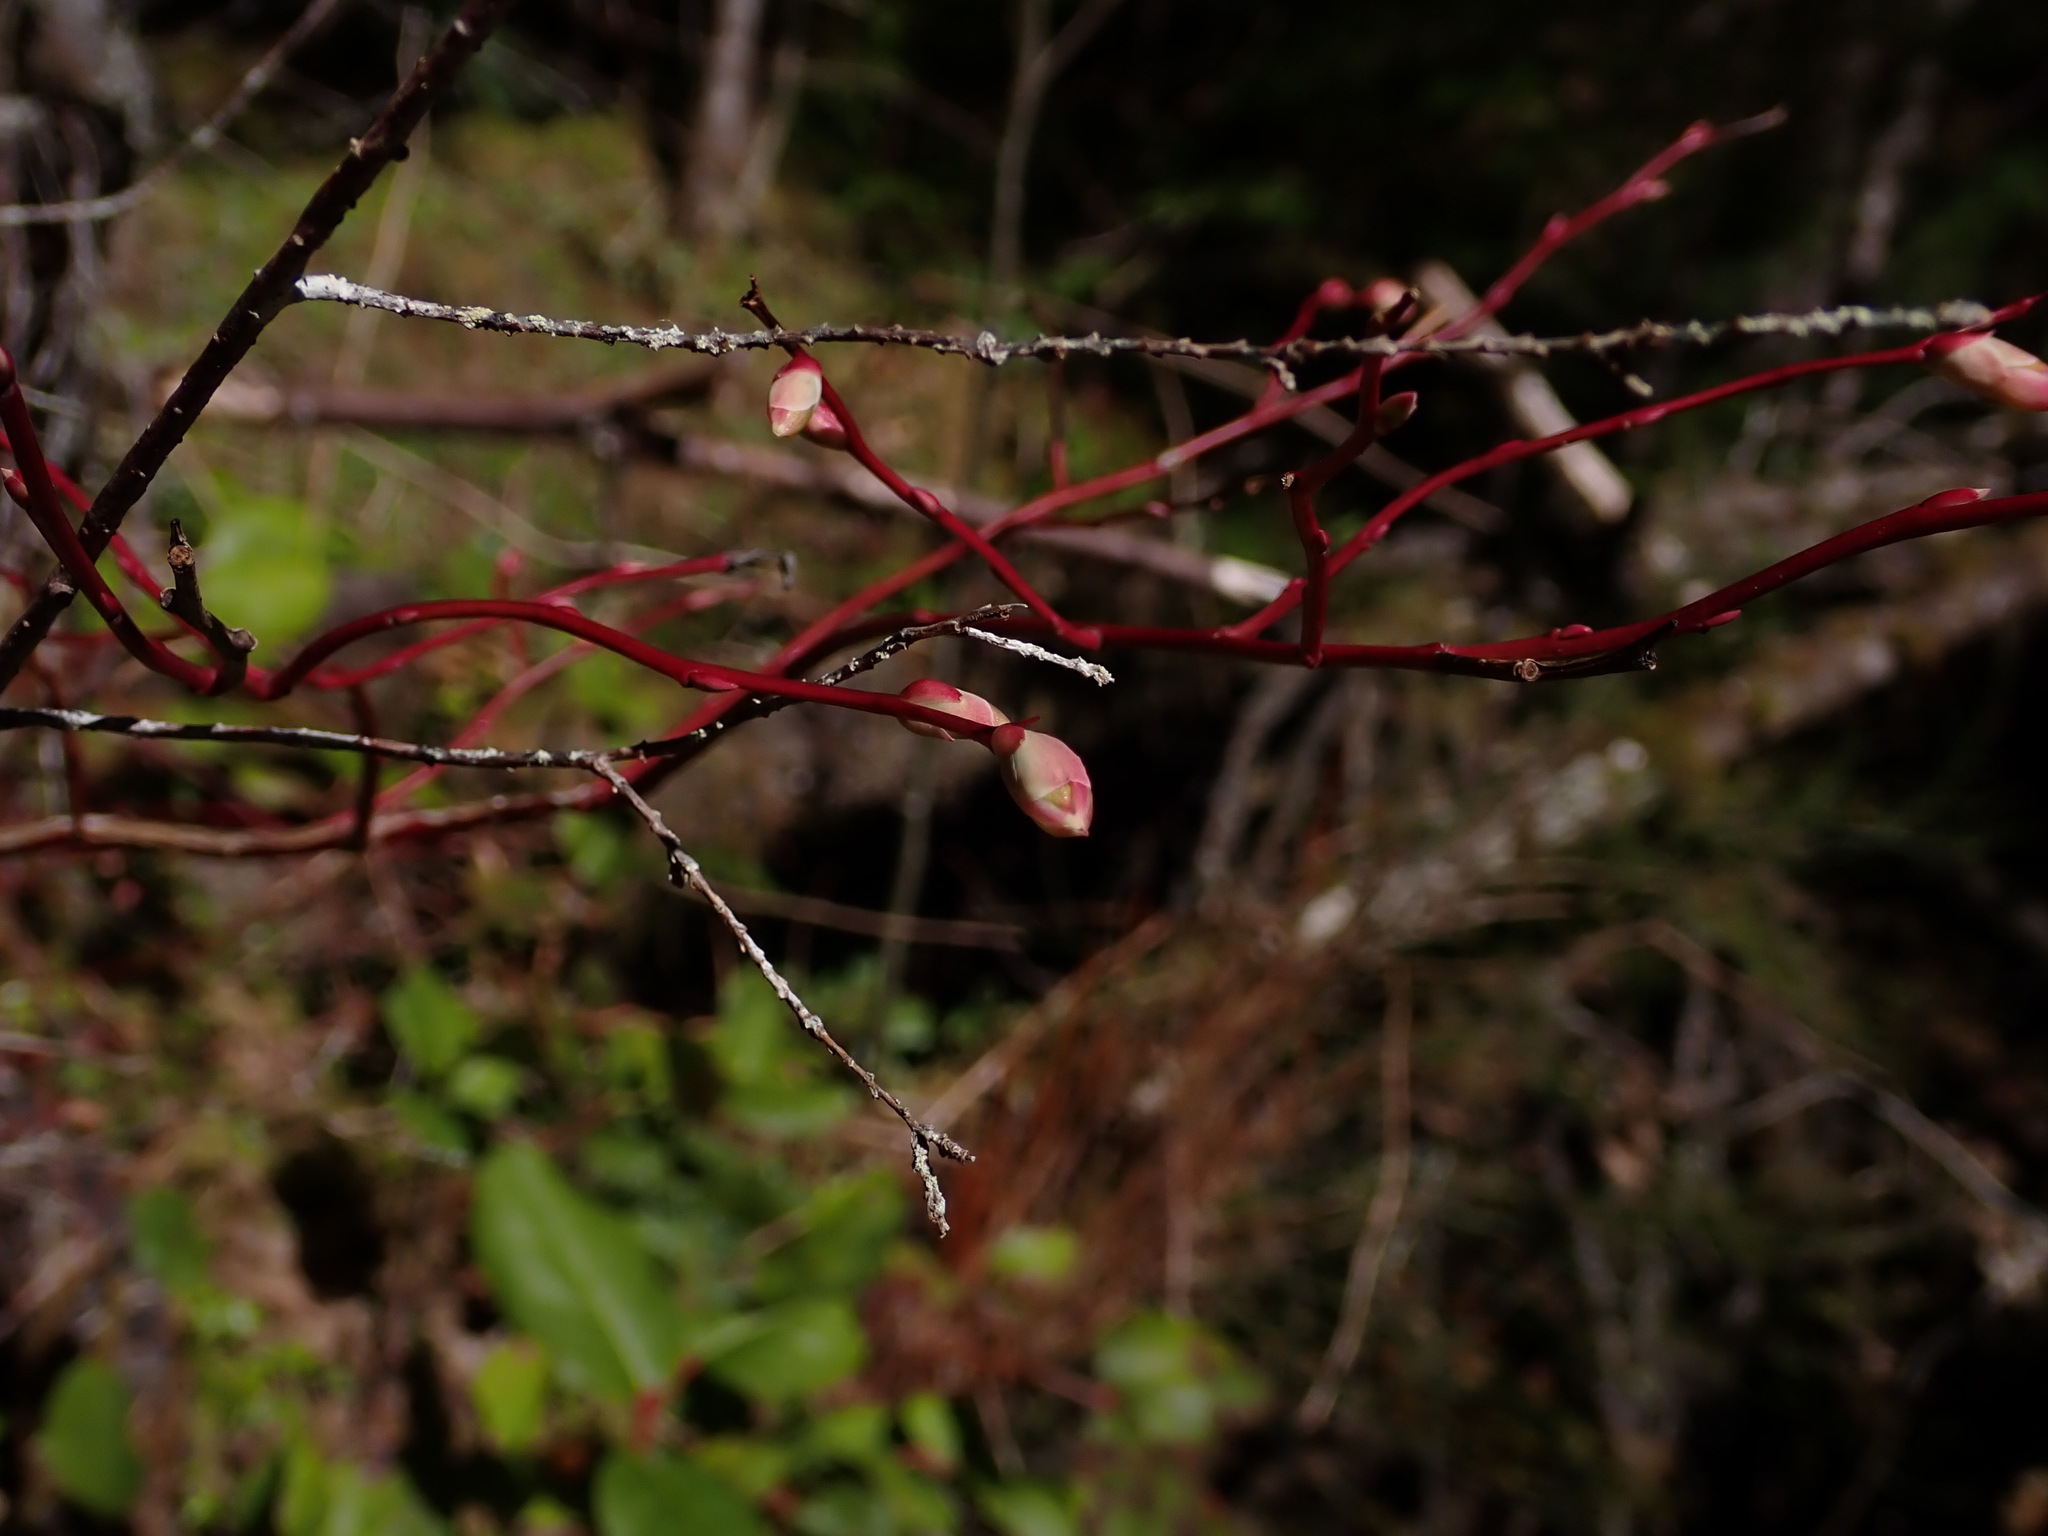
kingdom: Plantae
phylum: Tracheophyta
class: Magnoliopsida
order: Ericales
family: Ericaceae
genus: Vaccinium
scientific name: Vaccinium ovalifolium
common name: Early blueberry
